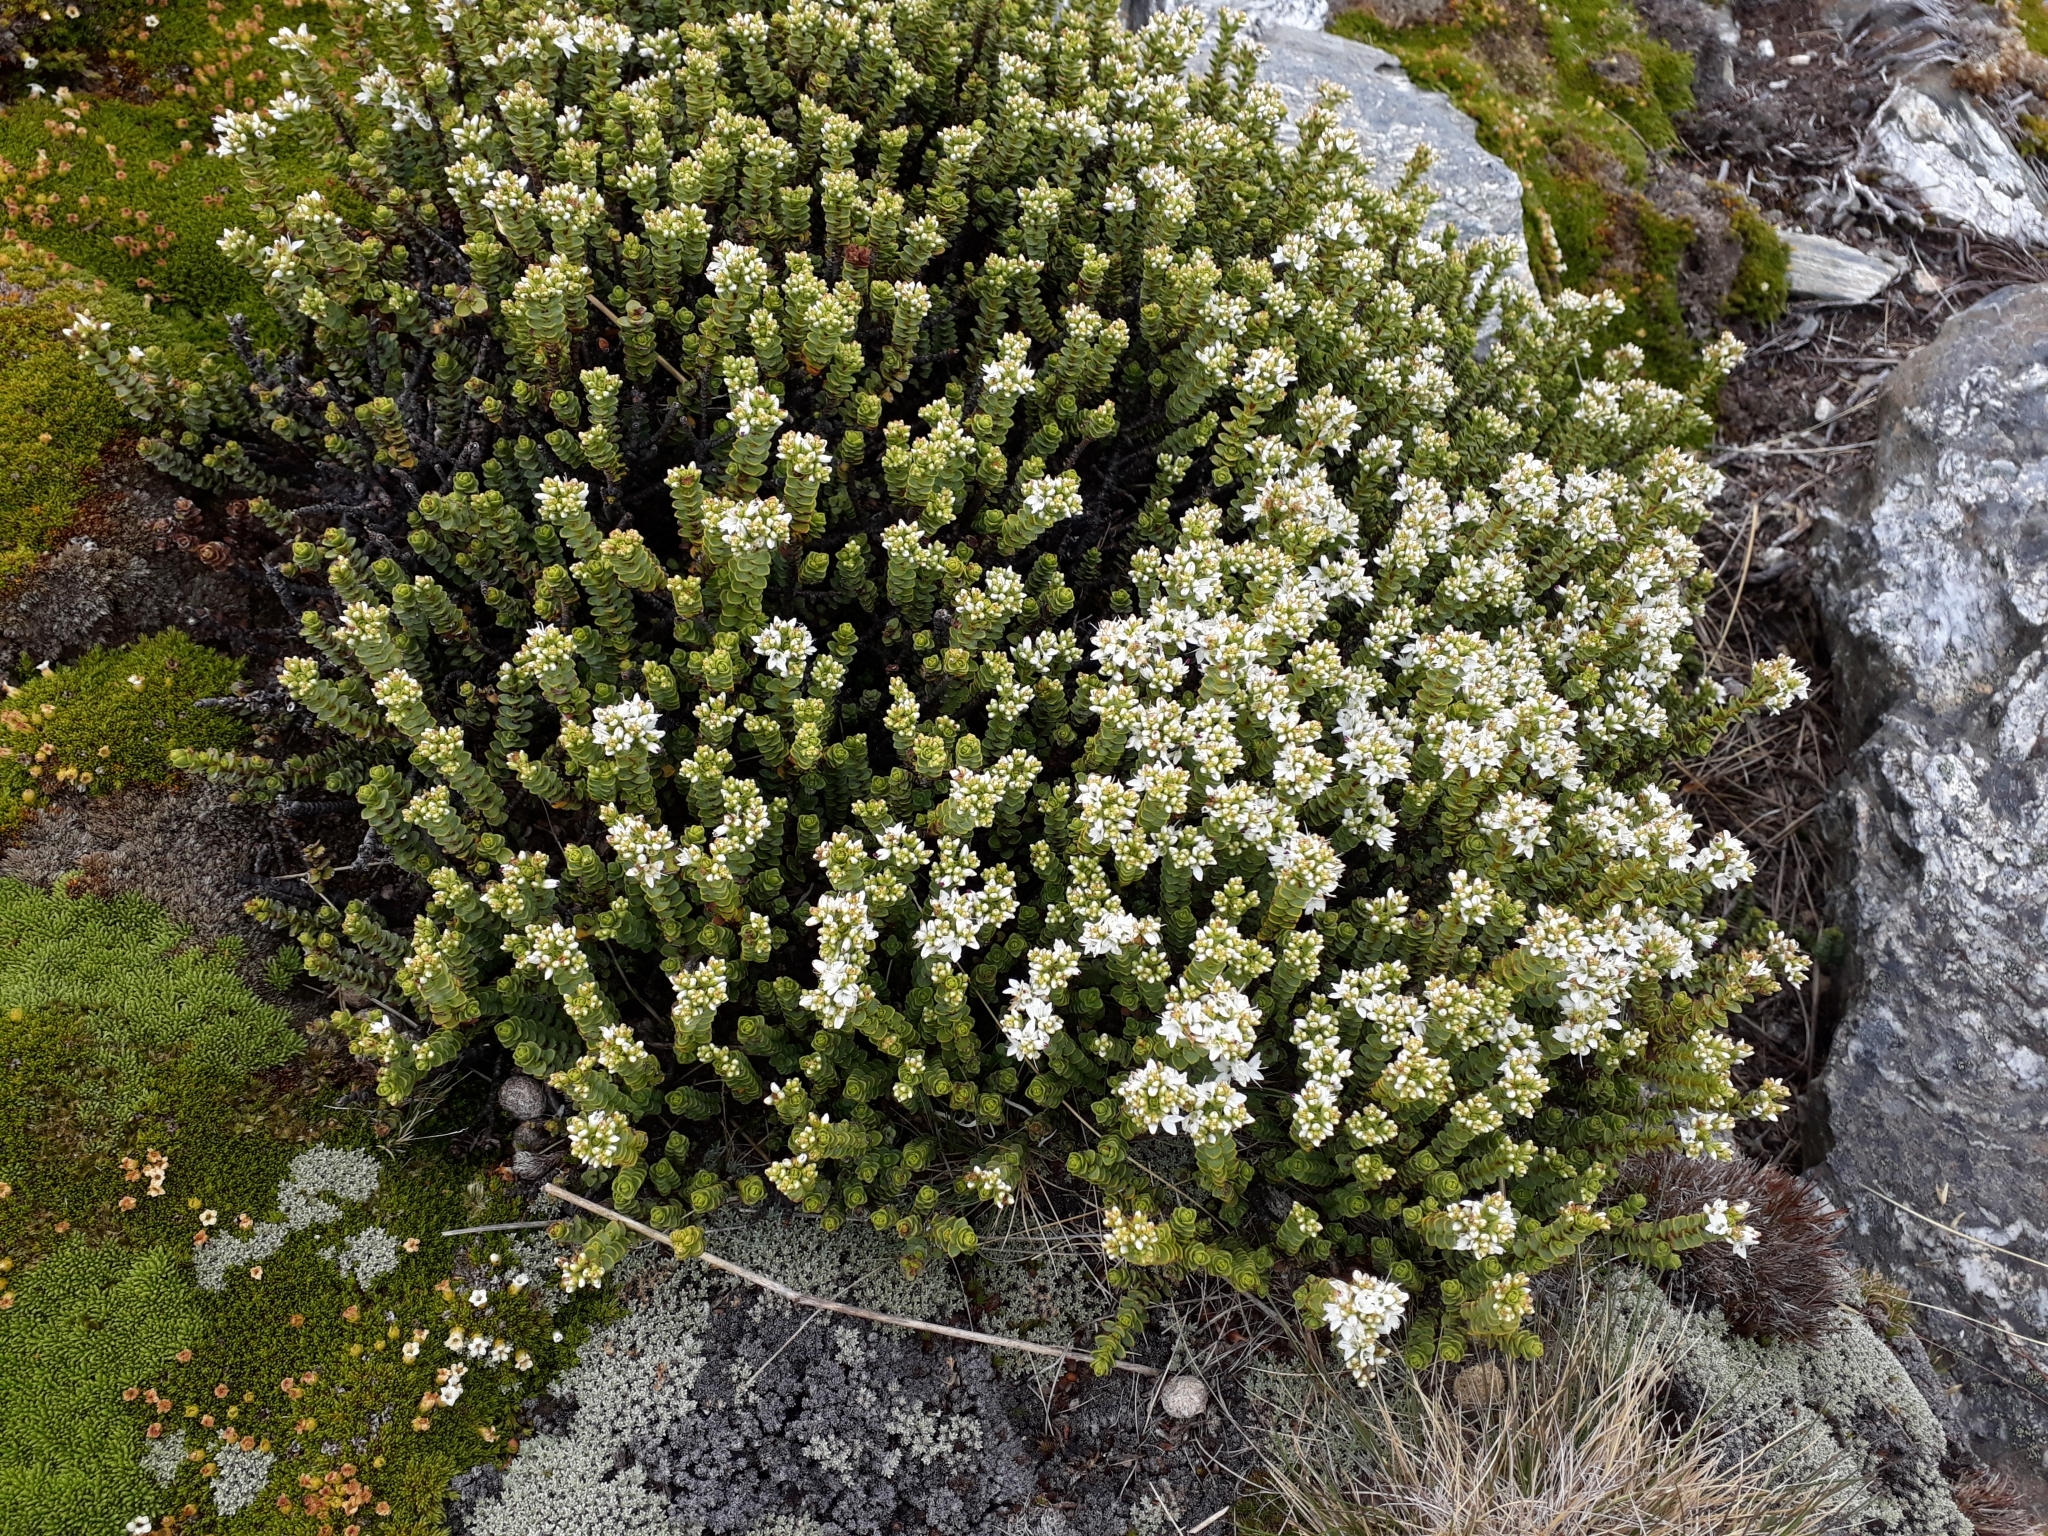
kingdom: Plantae
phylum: Tracheophyta
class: Magnoliopsida
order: Lamiales
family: Plantaginaceae
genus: Veronica
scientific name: Veronica buchananii
